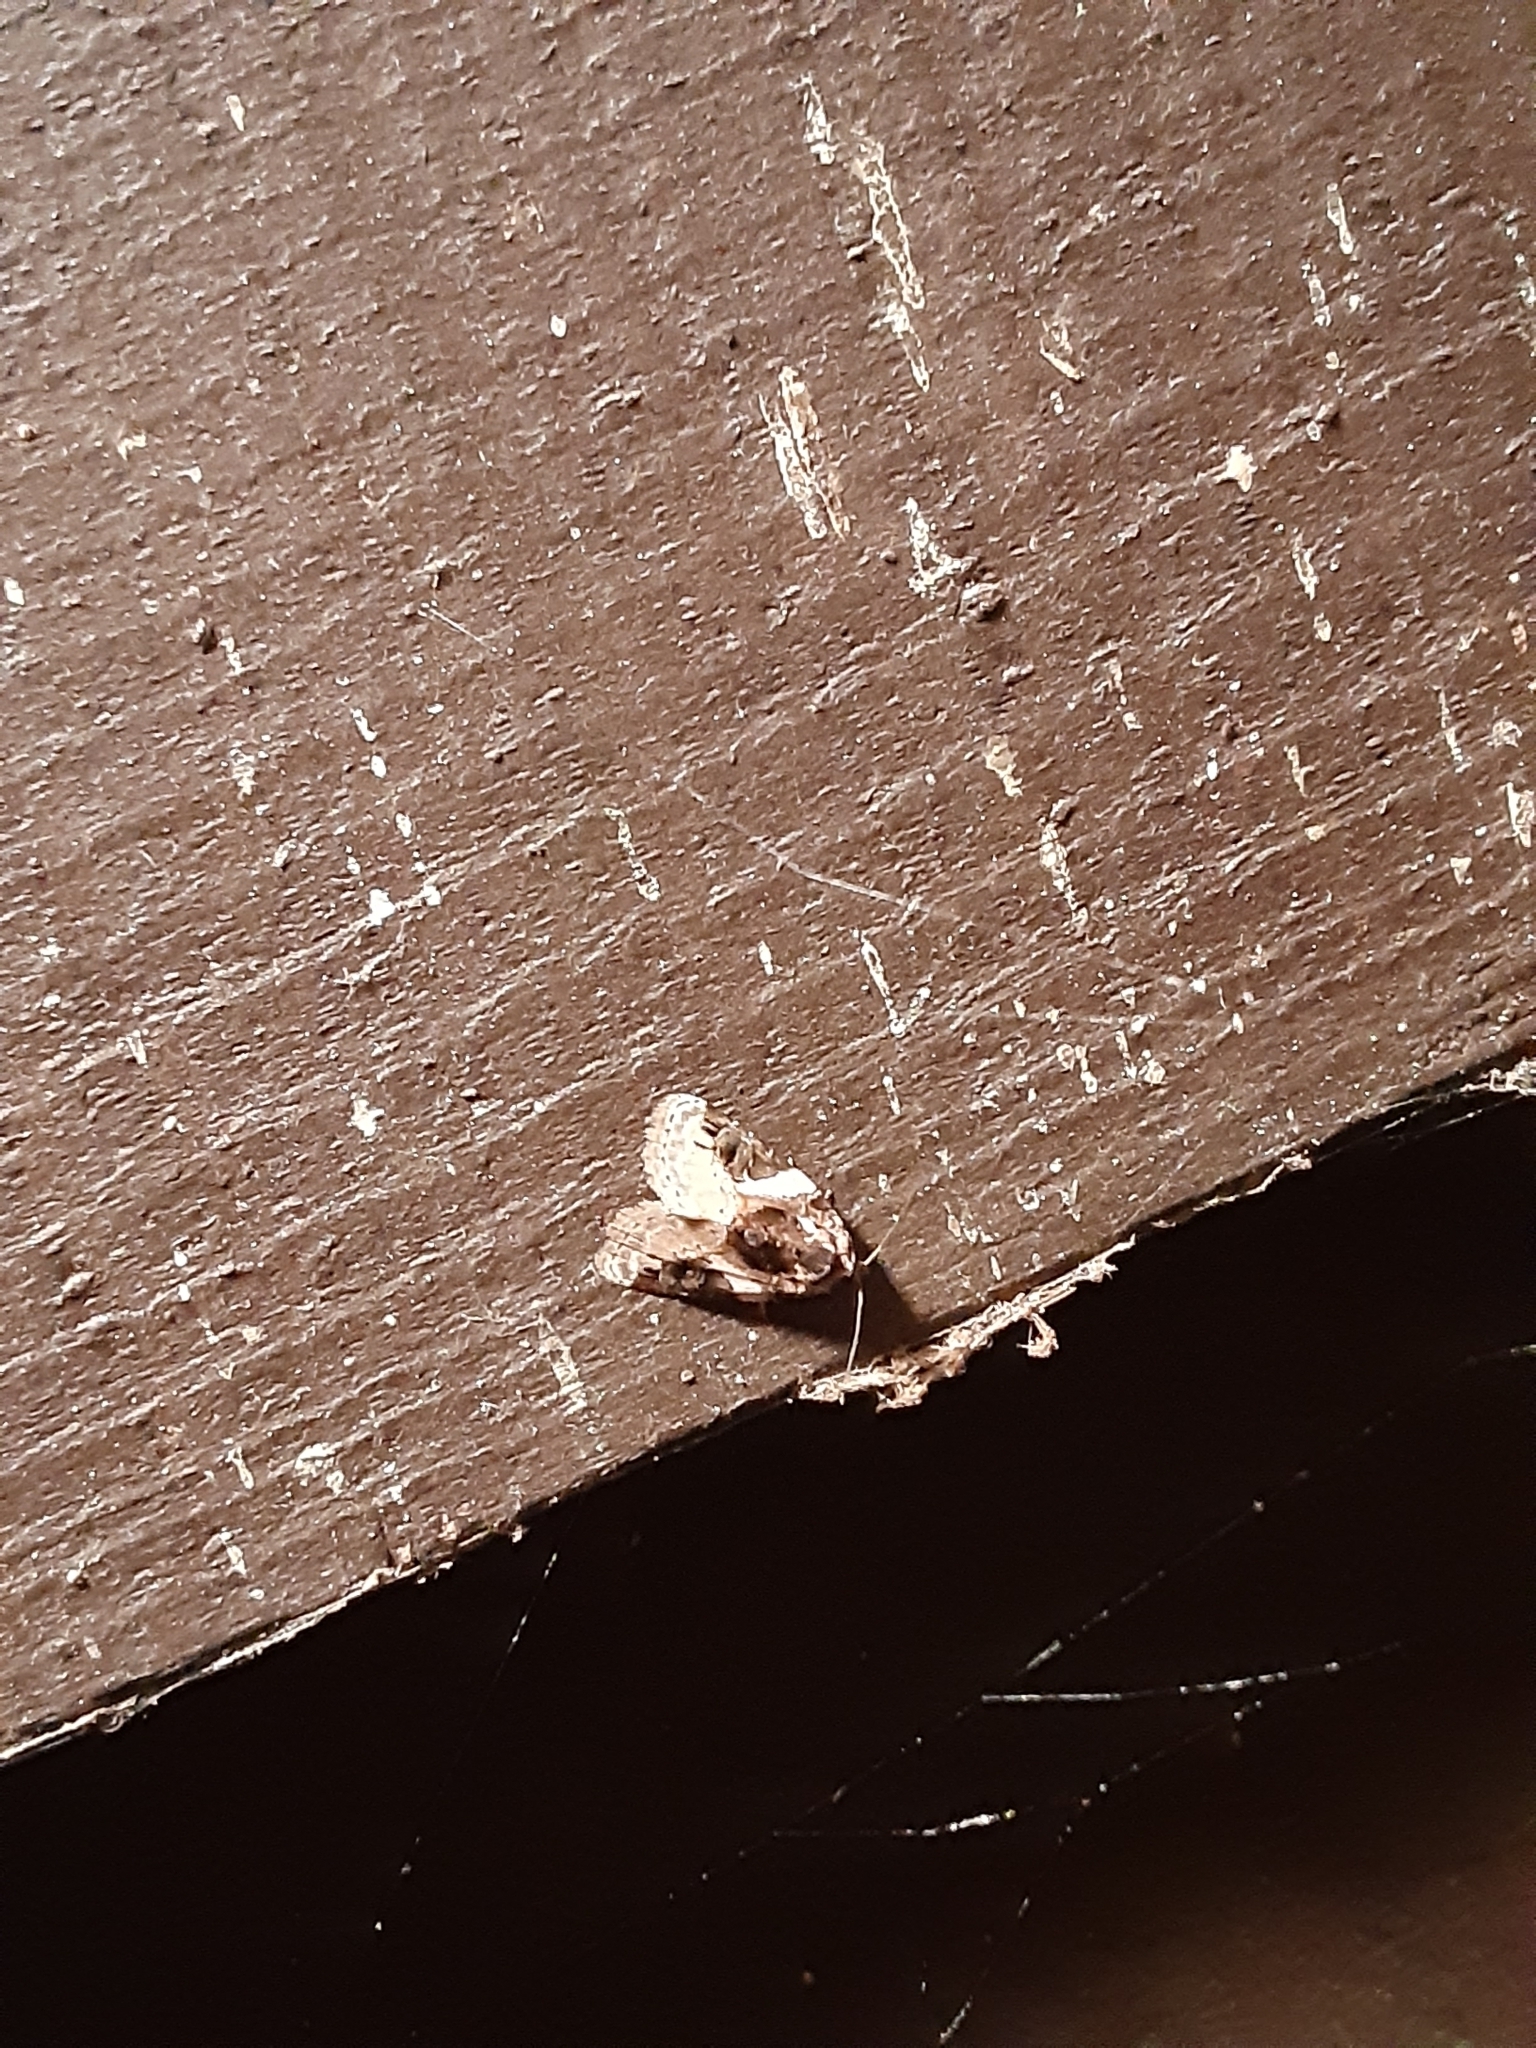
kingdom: Animalia
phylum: Arthropoda
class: Insecta
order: Lepidoptera
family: Noctuidae
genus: Pseudeustrotia
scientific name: Pseudeustrotia carneola
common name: Pink-barred lithacodia moth
